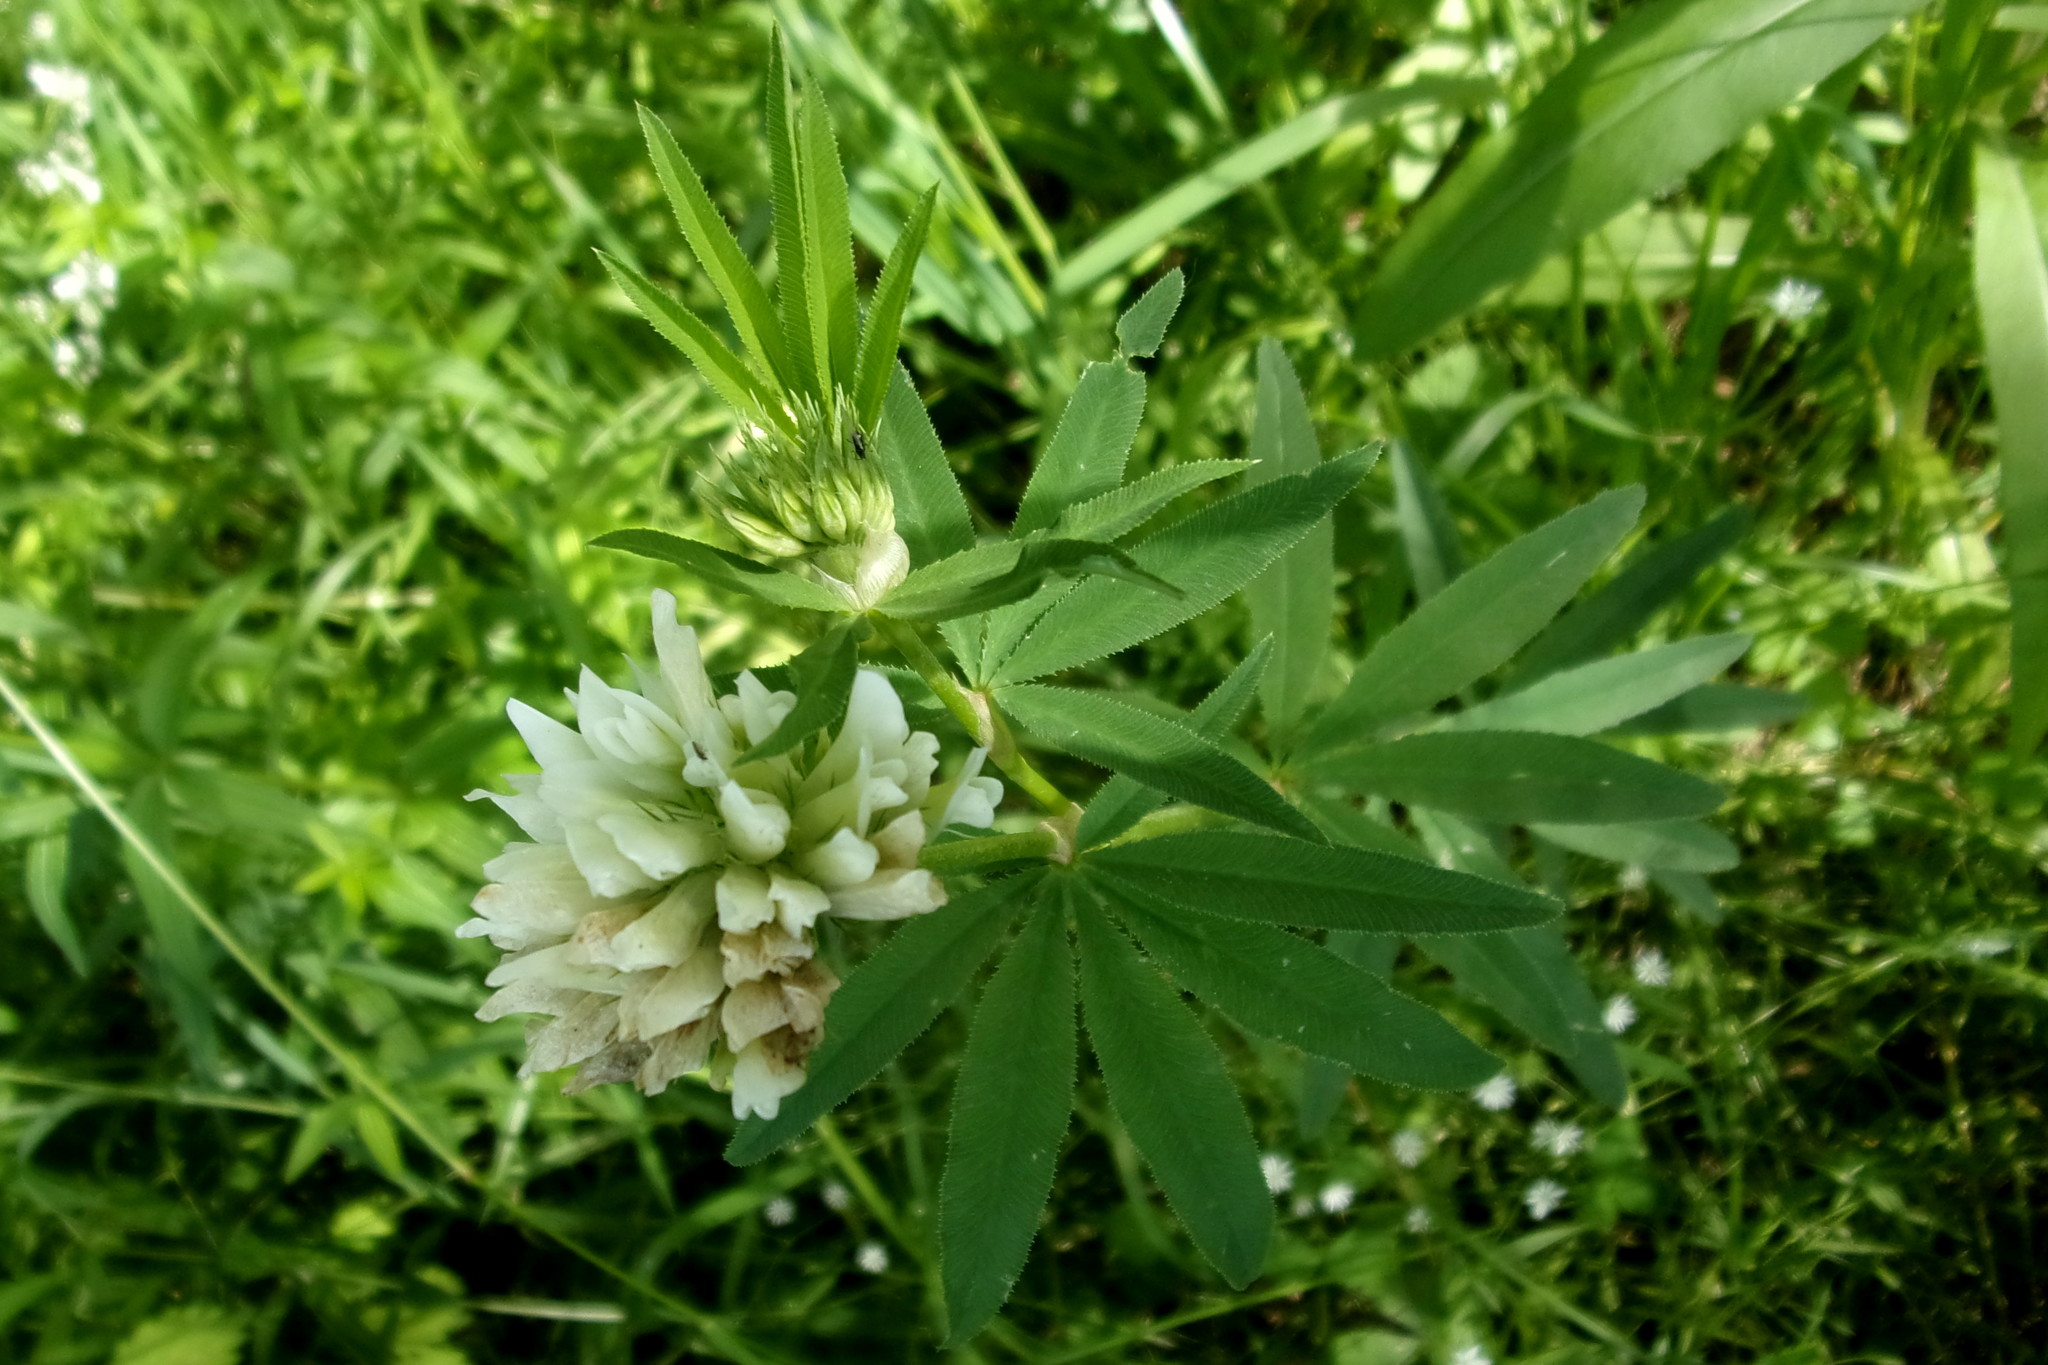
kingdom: Plantae
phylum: Tracheophyta
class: Magnoliopsida
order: Fabales
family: Fabaceae
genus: Trifolium
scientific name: Trifolium lupinaster
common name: Lupine clover
